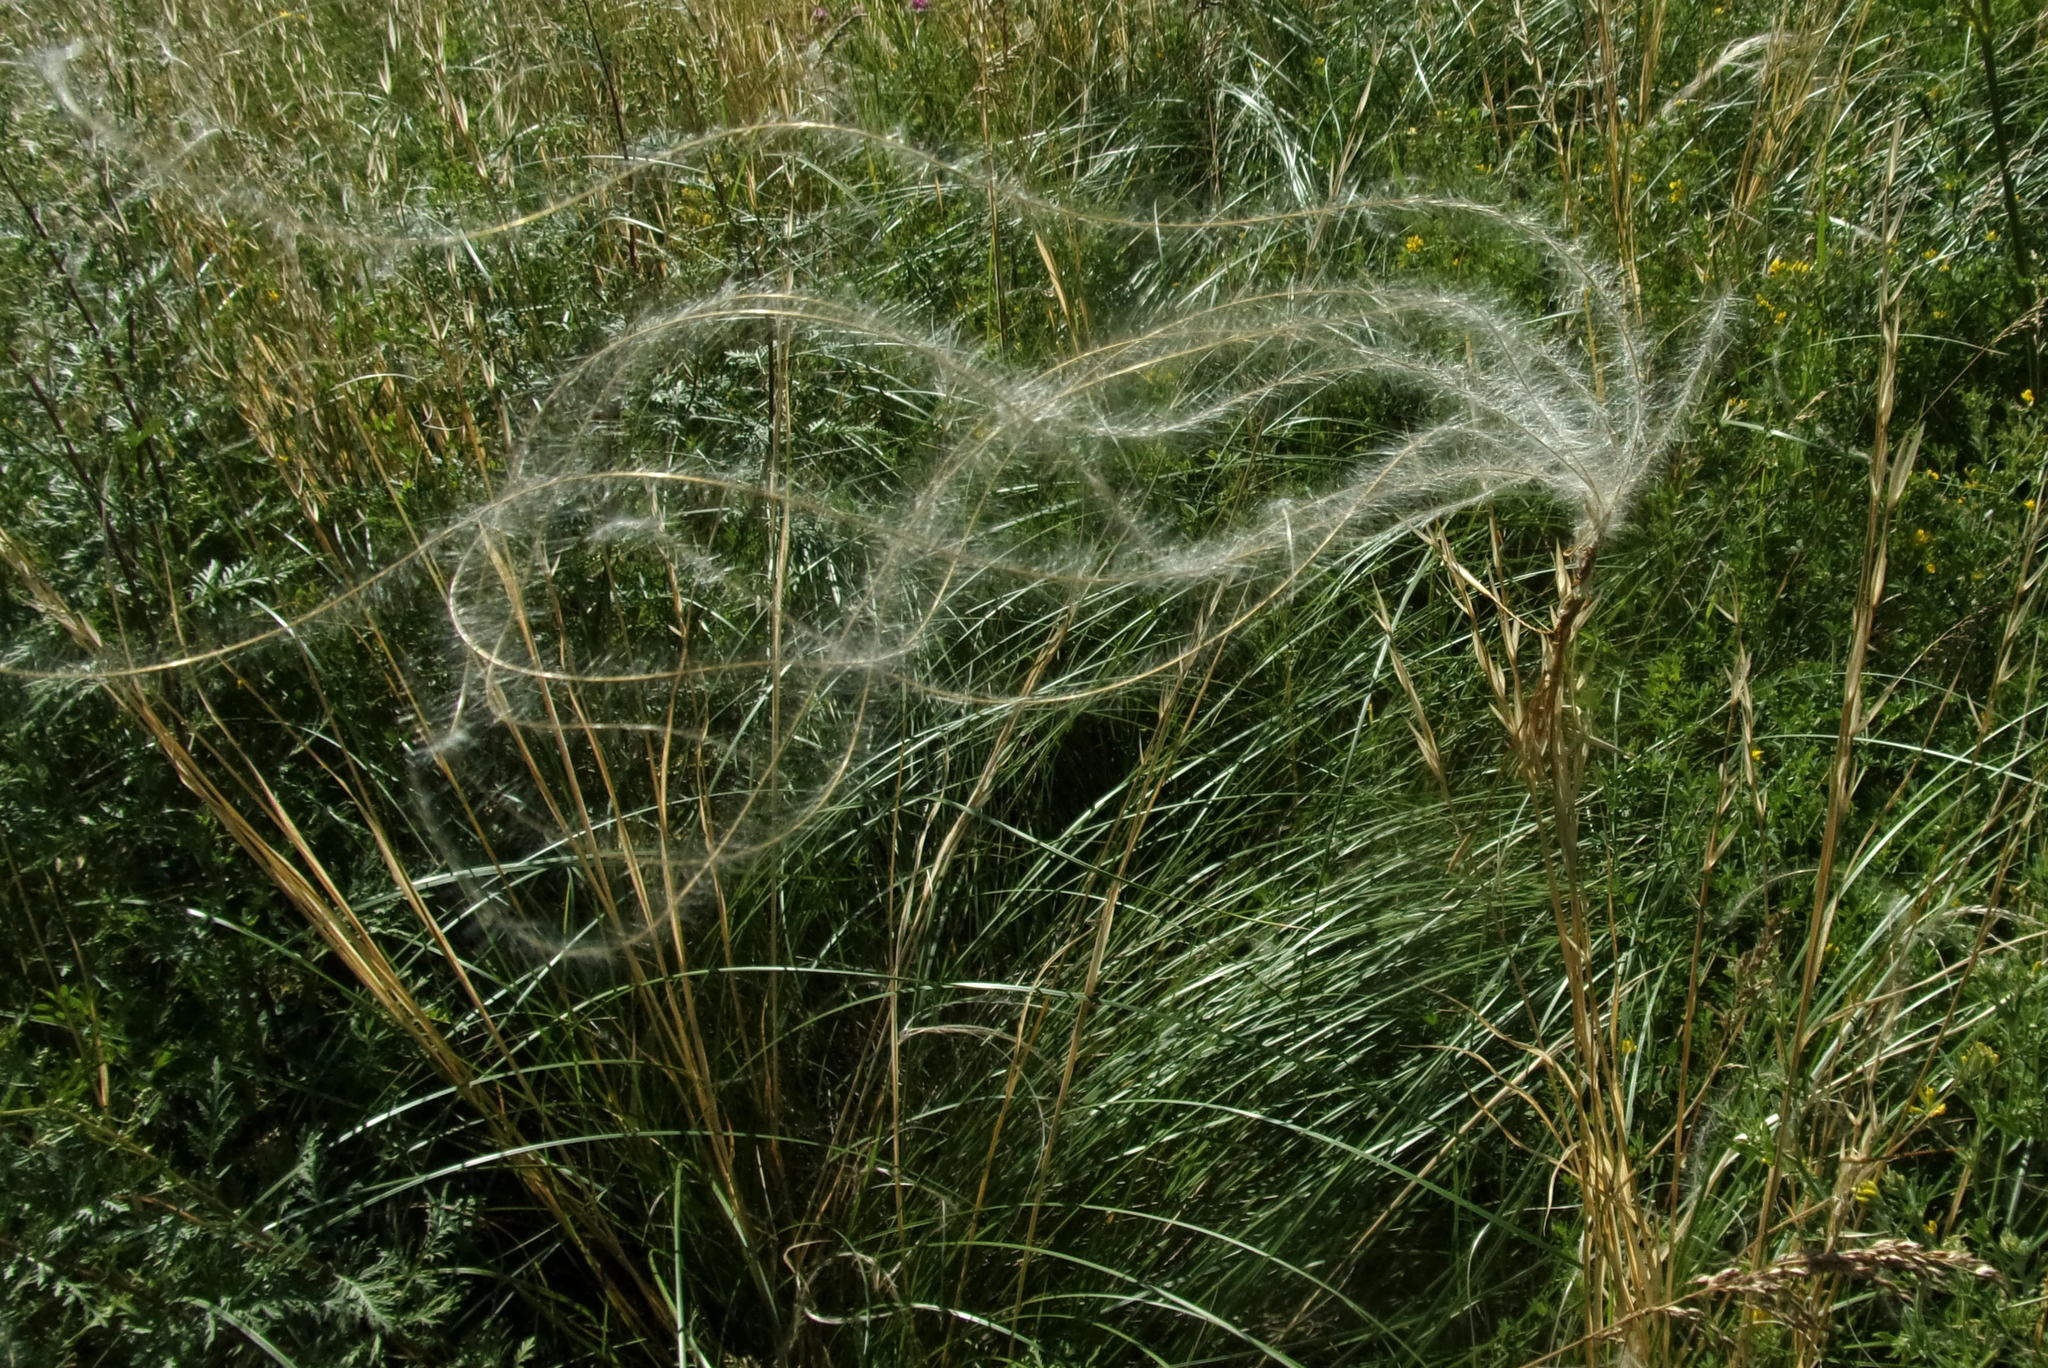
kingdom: Plantae
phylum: Tracheophyta
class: Liliopsida
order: Poales
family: Poaceae
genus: Stipa
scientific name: Stipa pennata
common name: European feather grass
